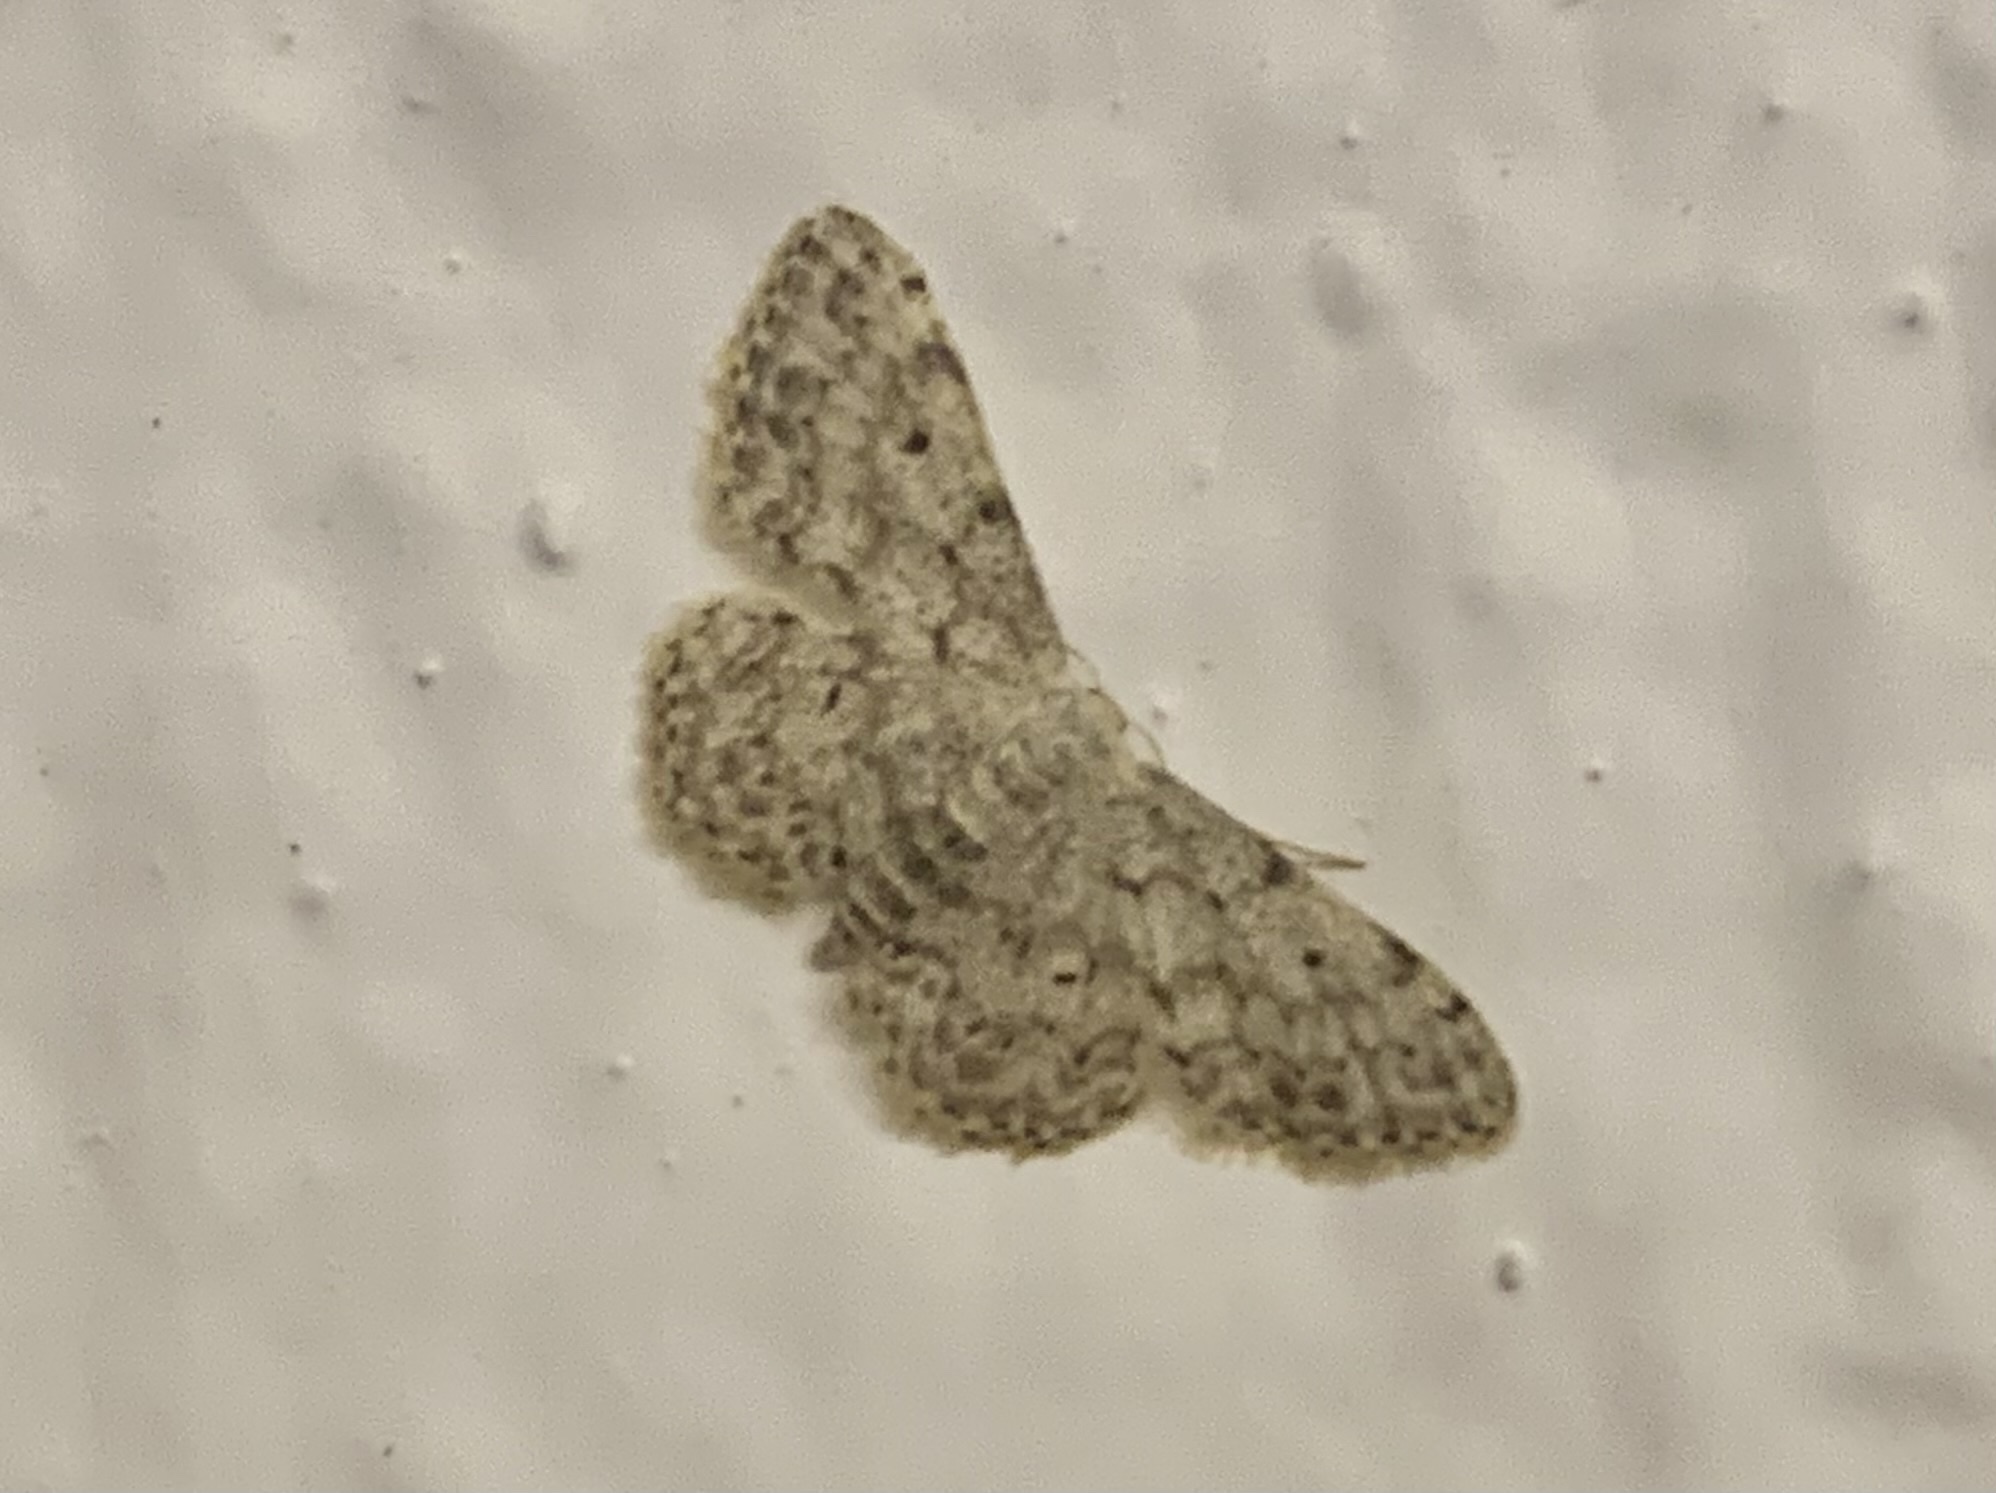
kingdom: Animalia
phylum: Arthropoda
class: Insecta
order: Lepidoptera
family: Geometridae
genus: Idaea
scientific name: Idaea camparia
